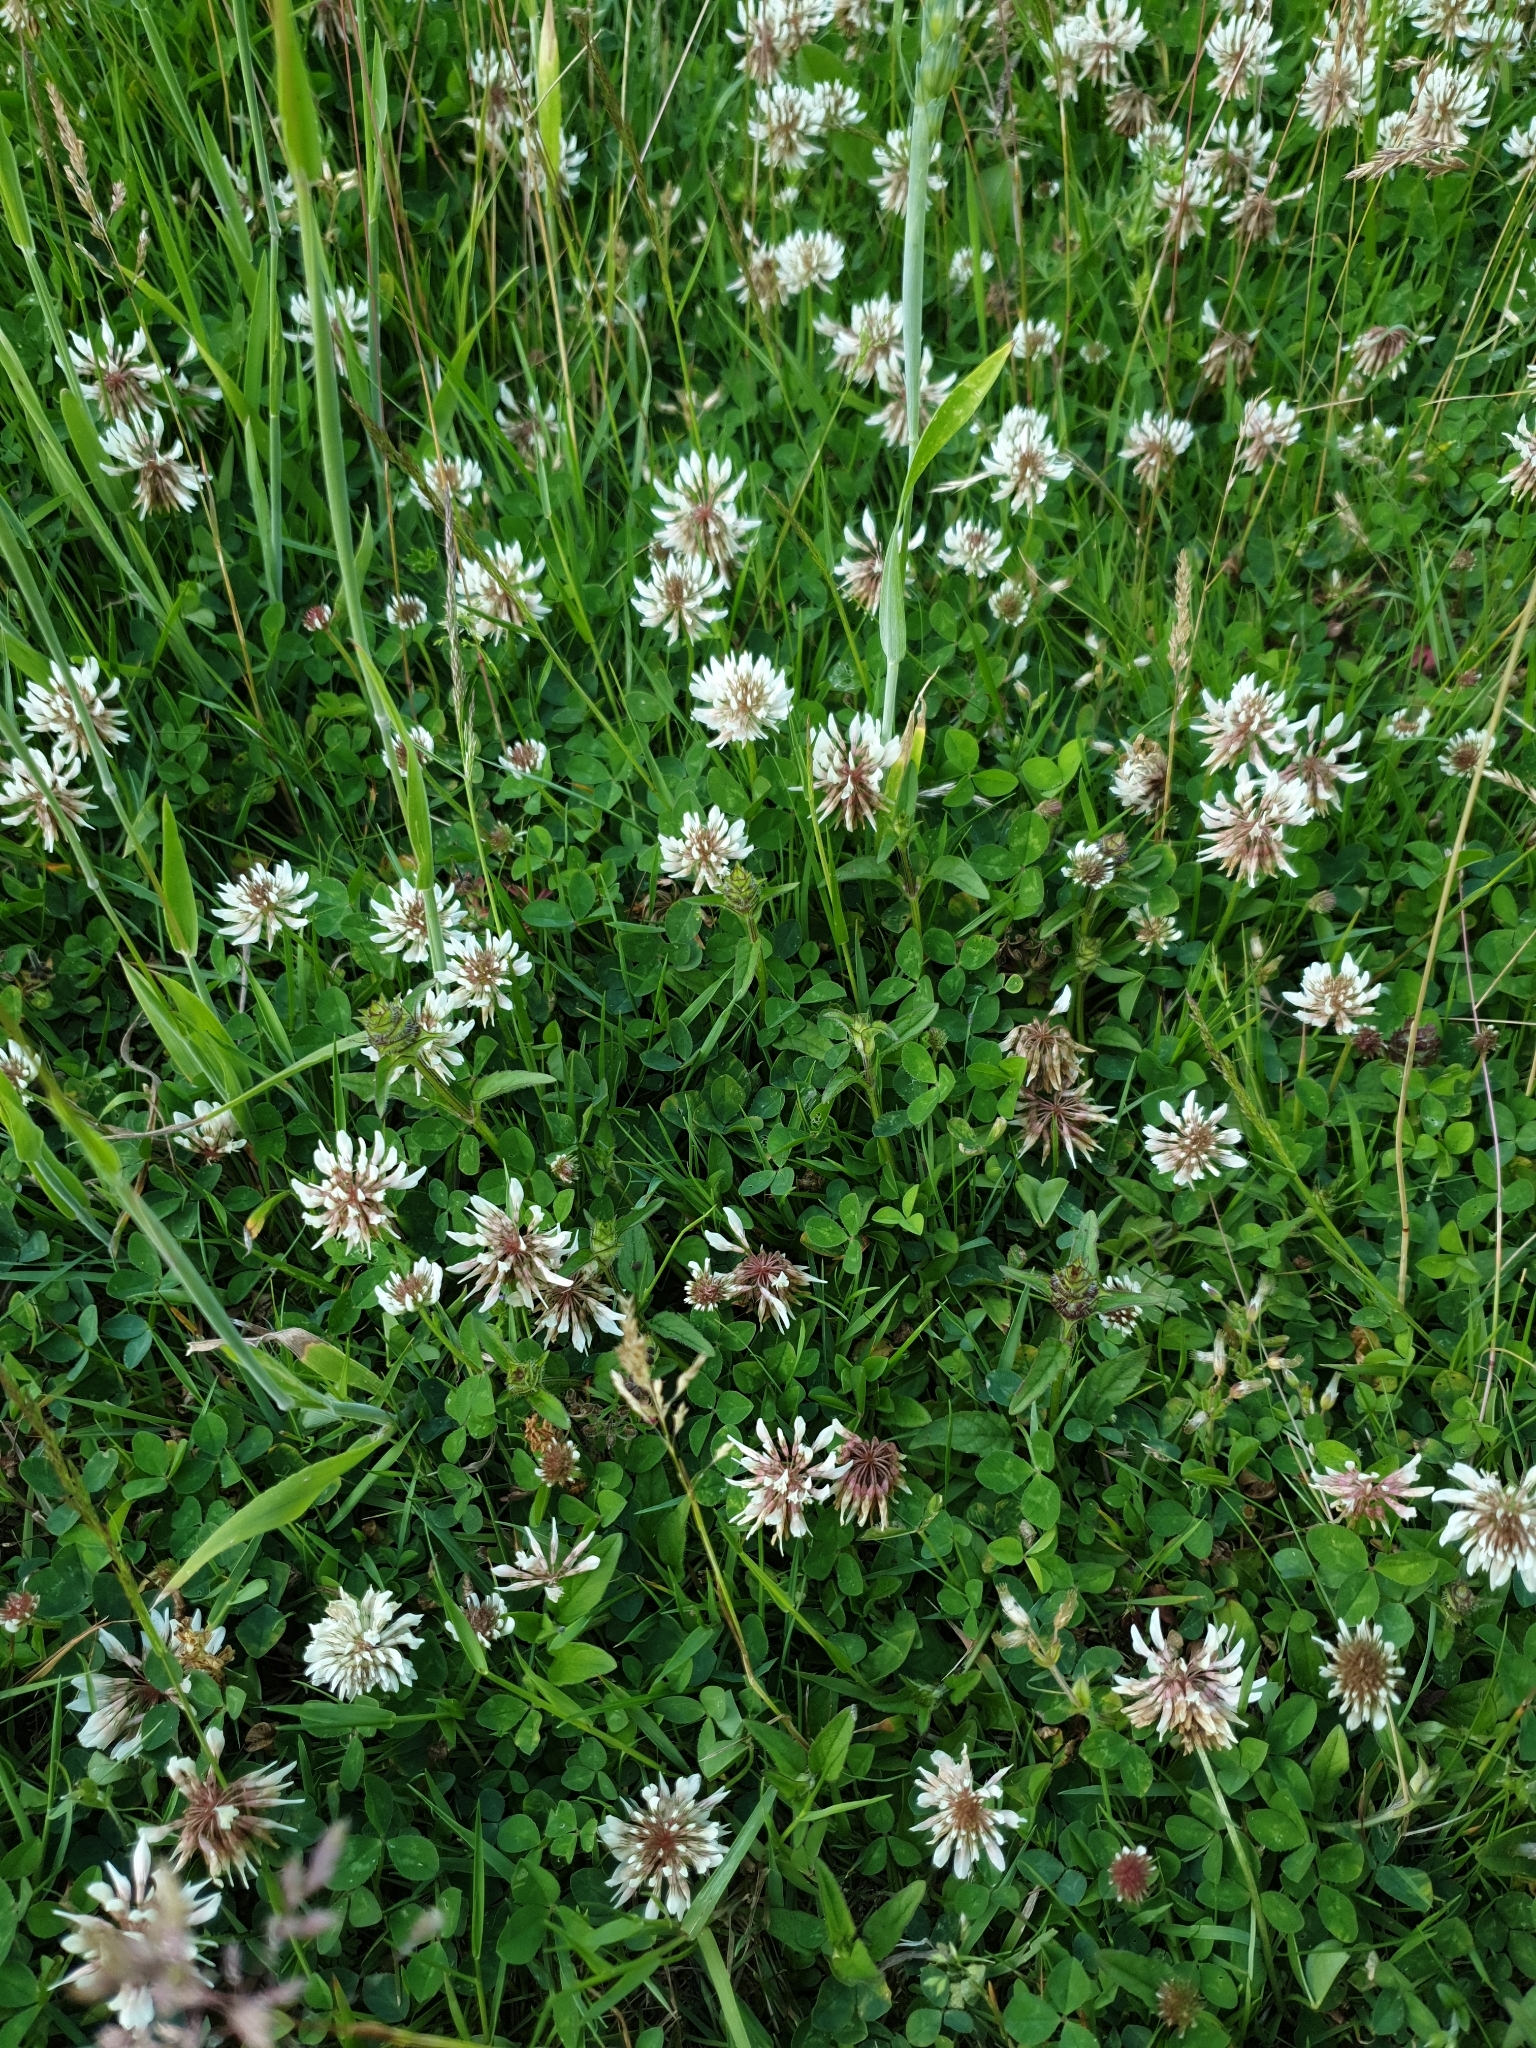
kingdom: Plantae
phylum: Tracheophyta
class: Magnoliopsida
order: Fabales
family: Fabaceae
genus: Trifolium
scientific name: Trifolium repens
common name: White clover
